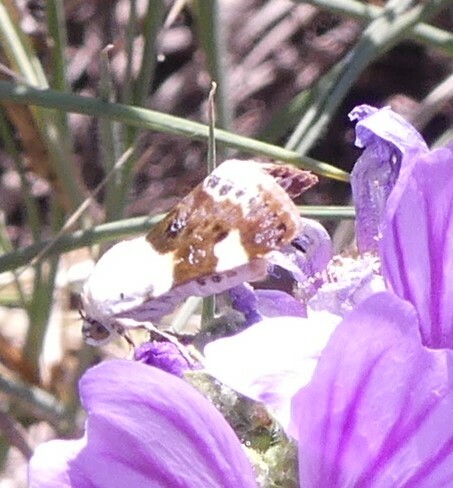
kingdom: Animalia
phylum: Arthropoda
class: Insecta
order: Lepidoptera
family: Noctuidae
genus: Acontia
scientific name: Acontia lucida
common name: Pale shoulder
